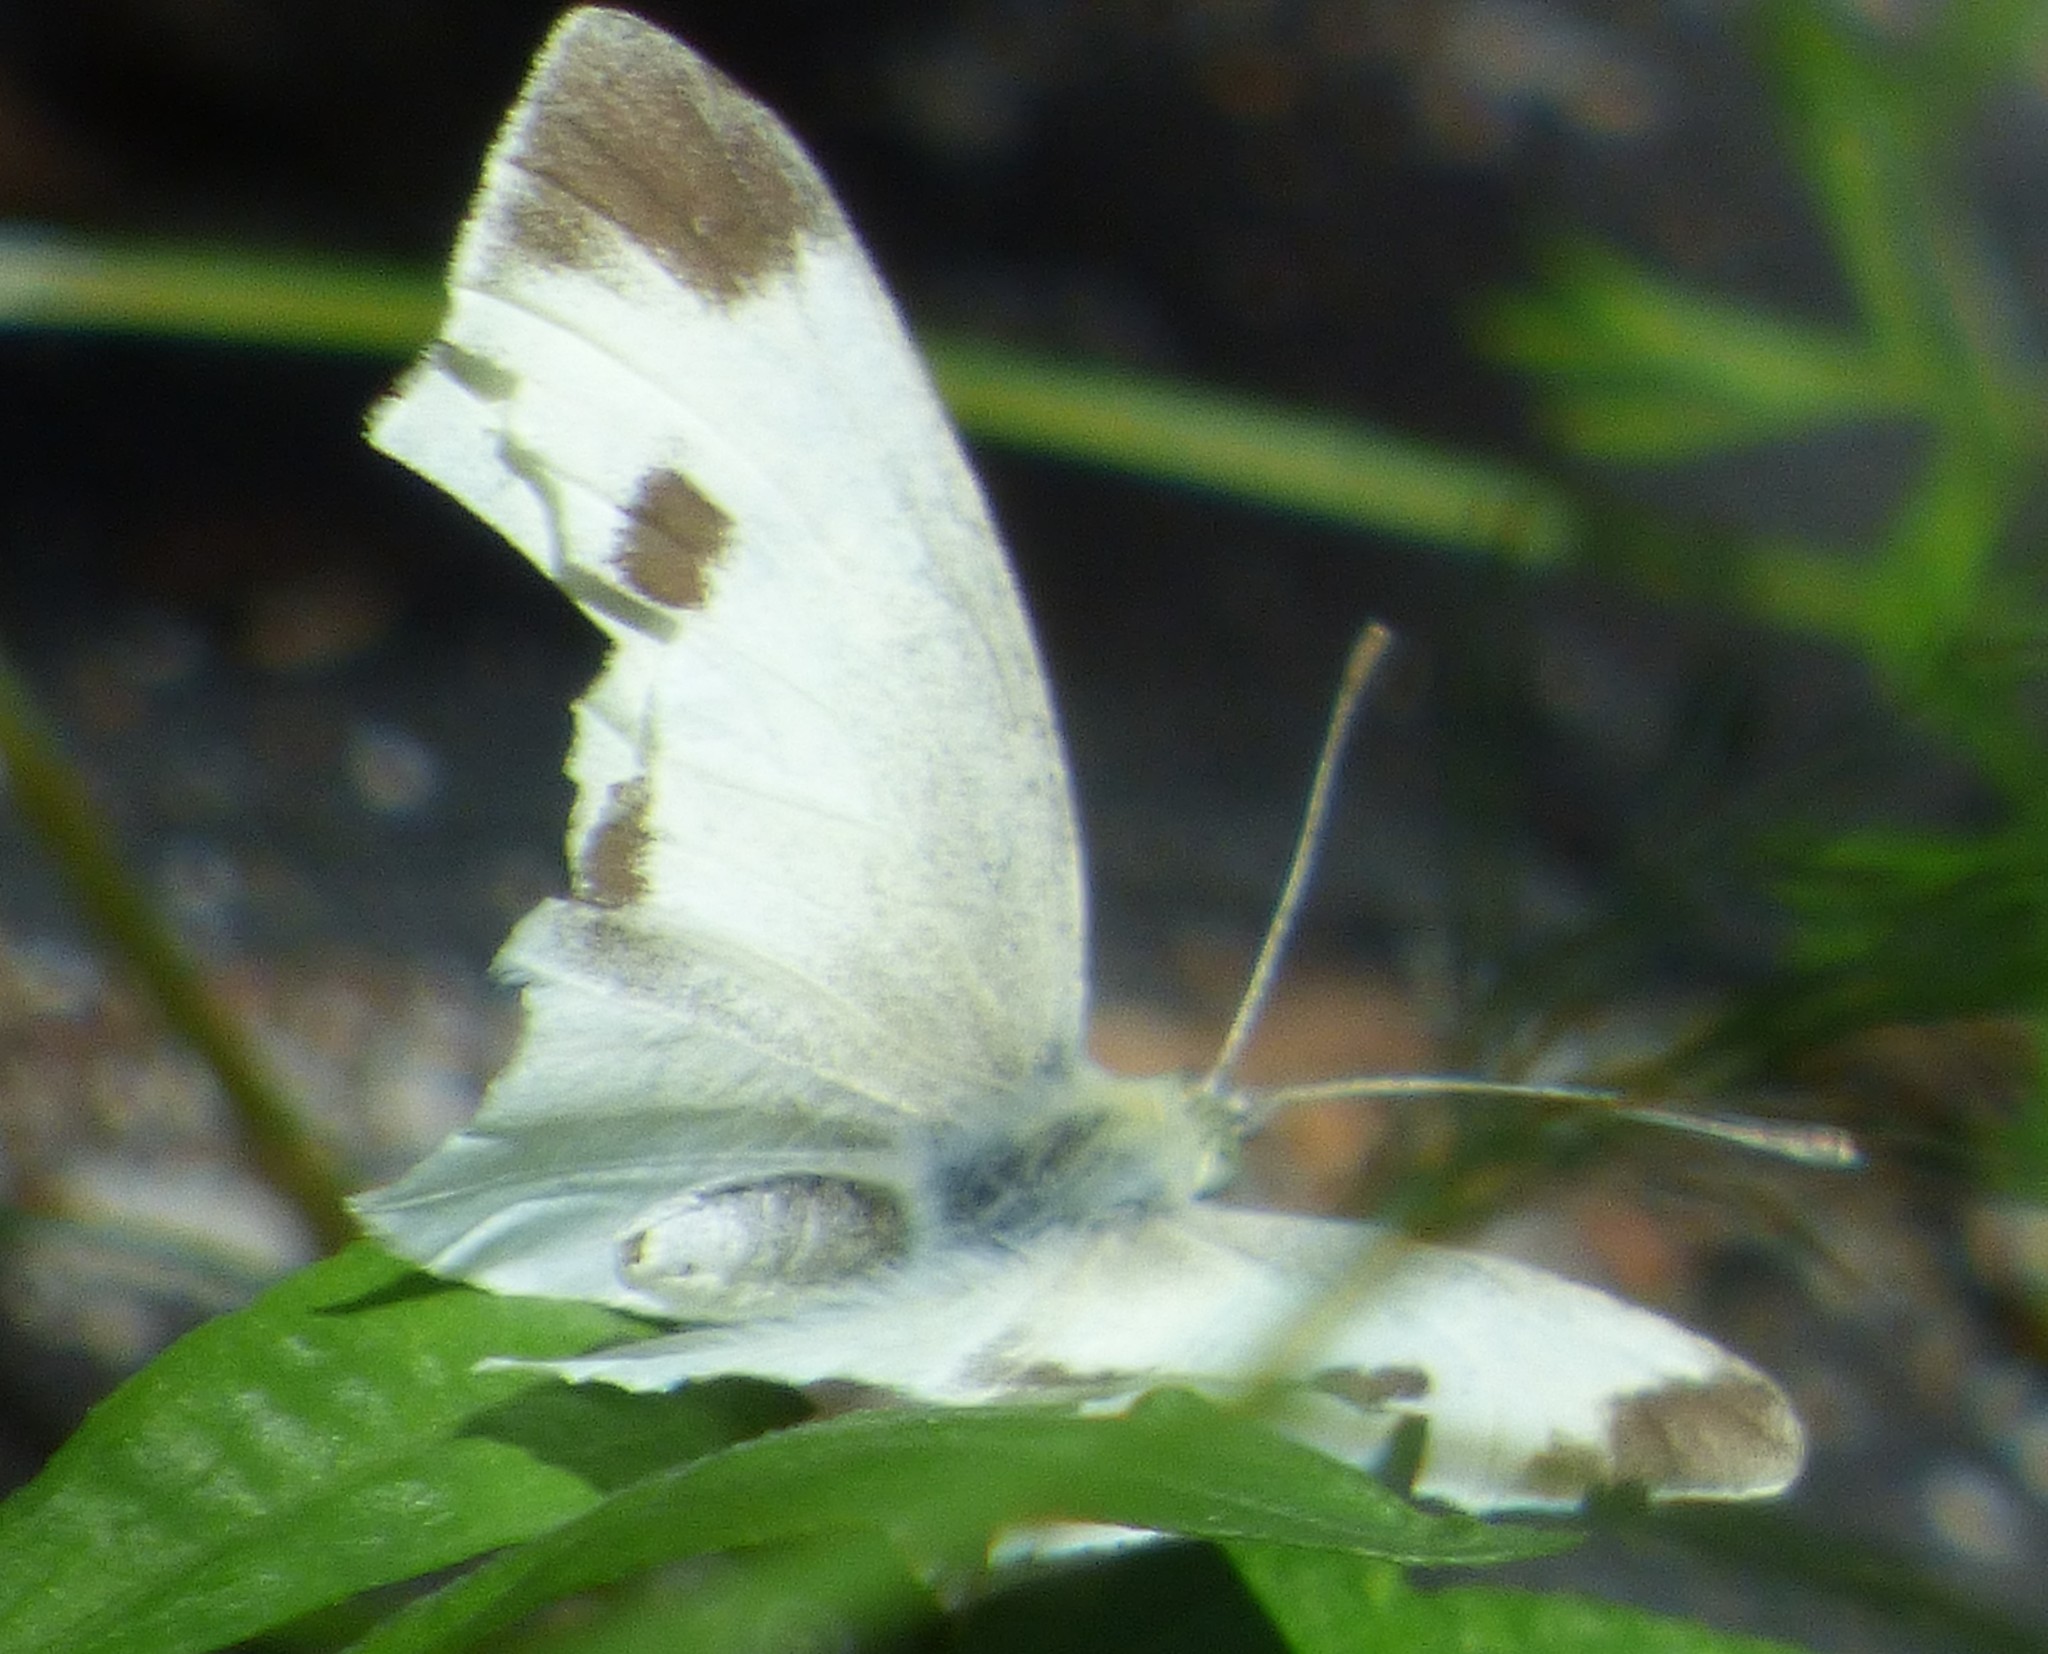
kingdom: Animalia
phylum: Arthropoda
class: Insecta
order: Lepidoptera
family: Pieridae
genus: Pieris
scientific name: Pieris rapae
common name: Small white
